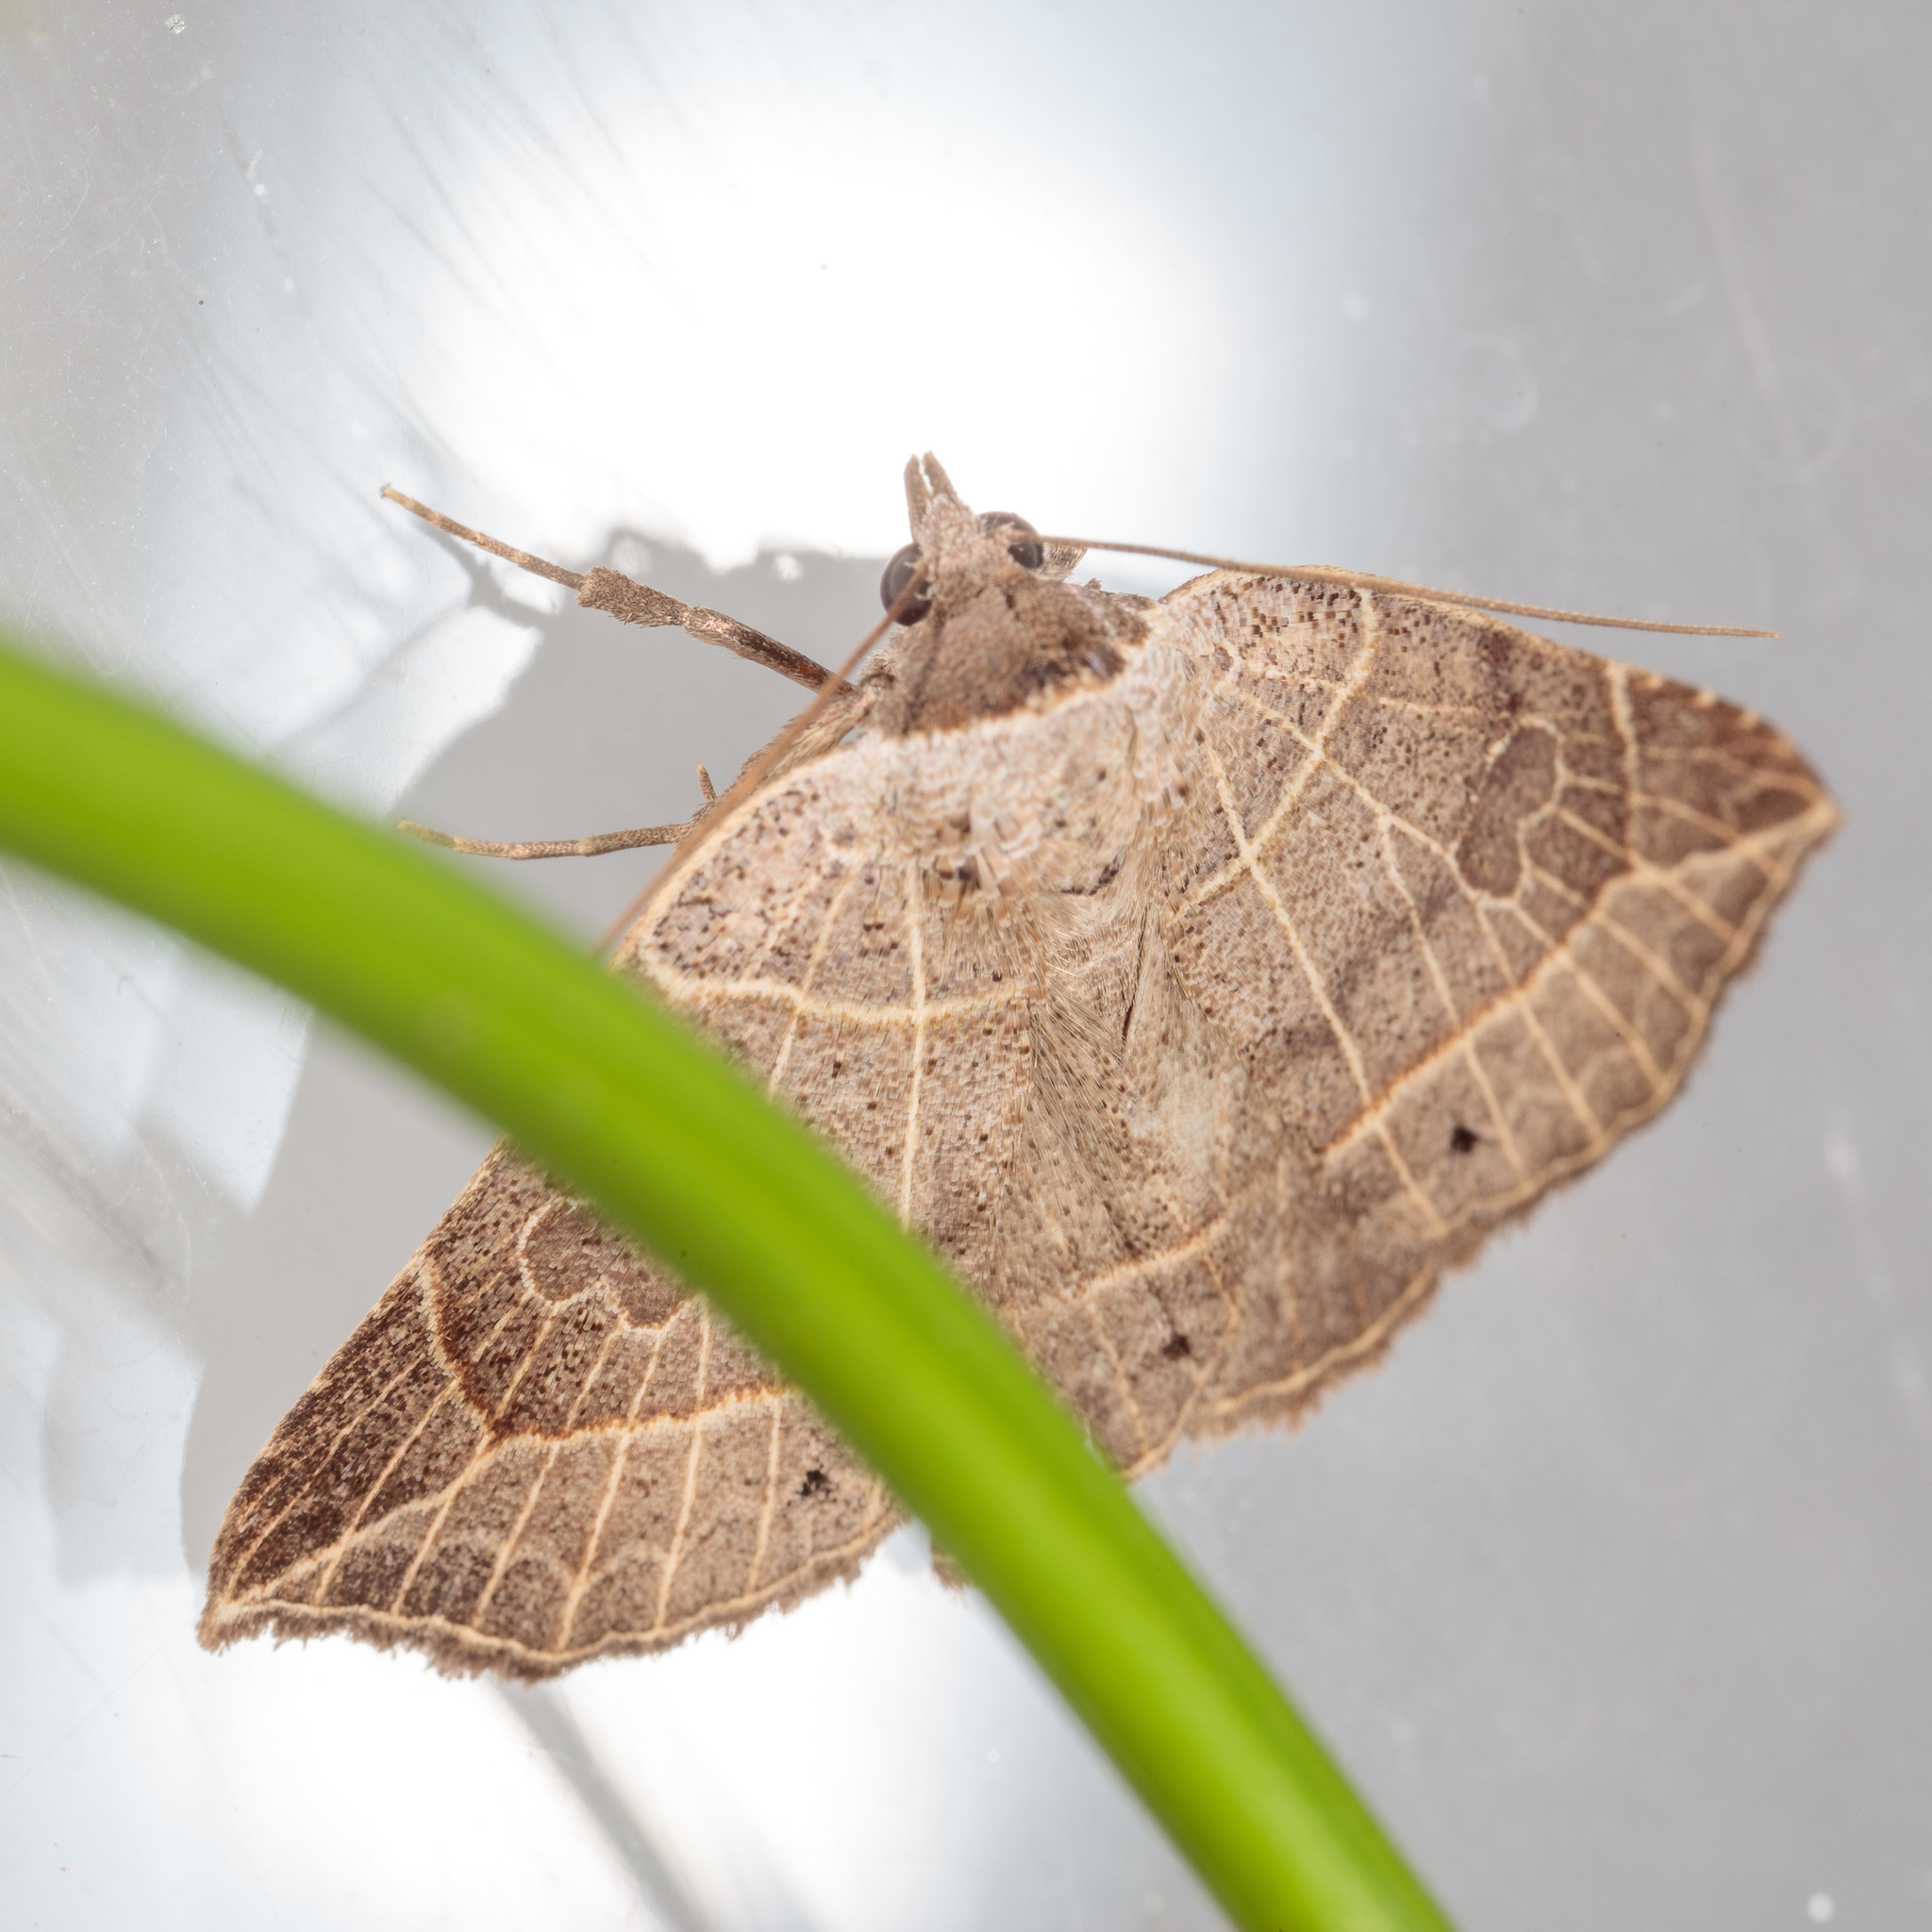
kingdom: Animalia
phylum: Arthropoda
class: Insecta
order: Lepidoptera
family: Erebidae
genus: Isogona
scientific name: Isogona tenuis
